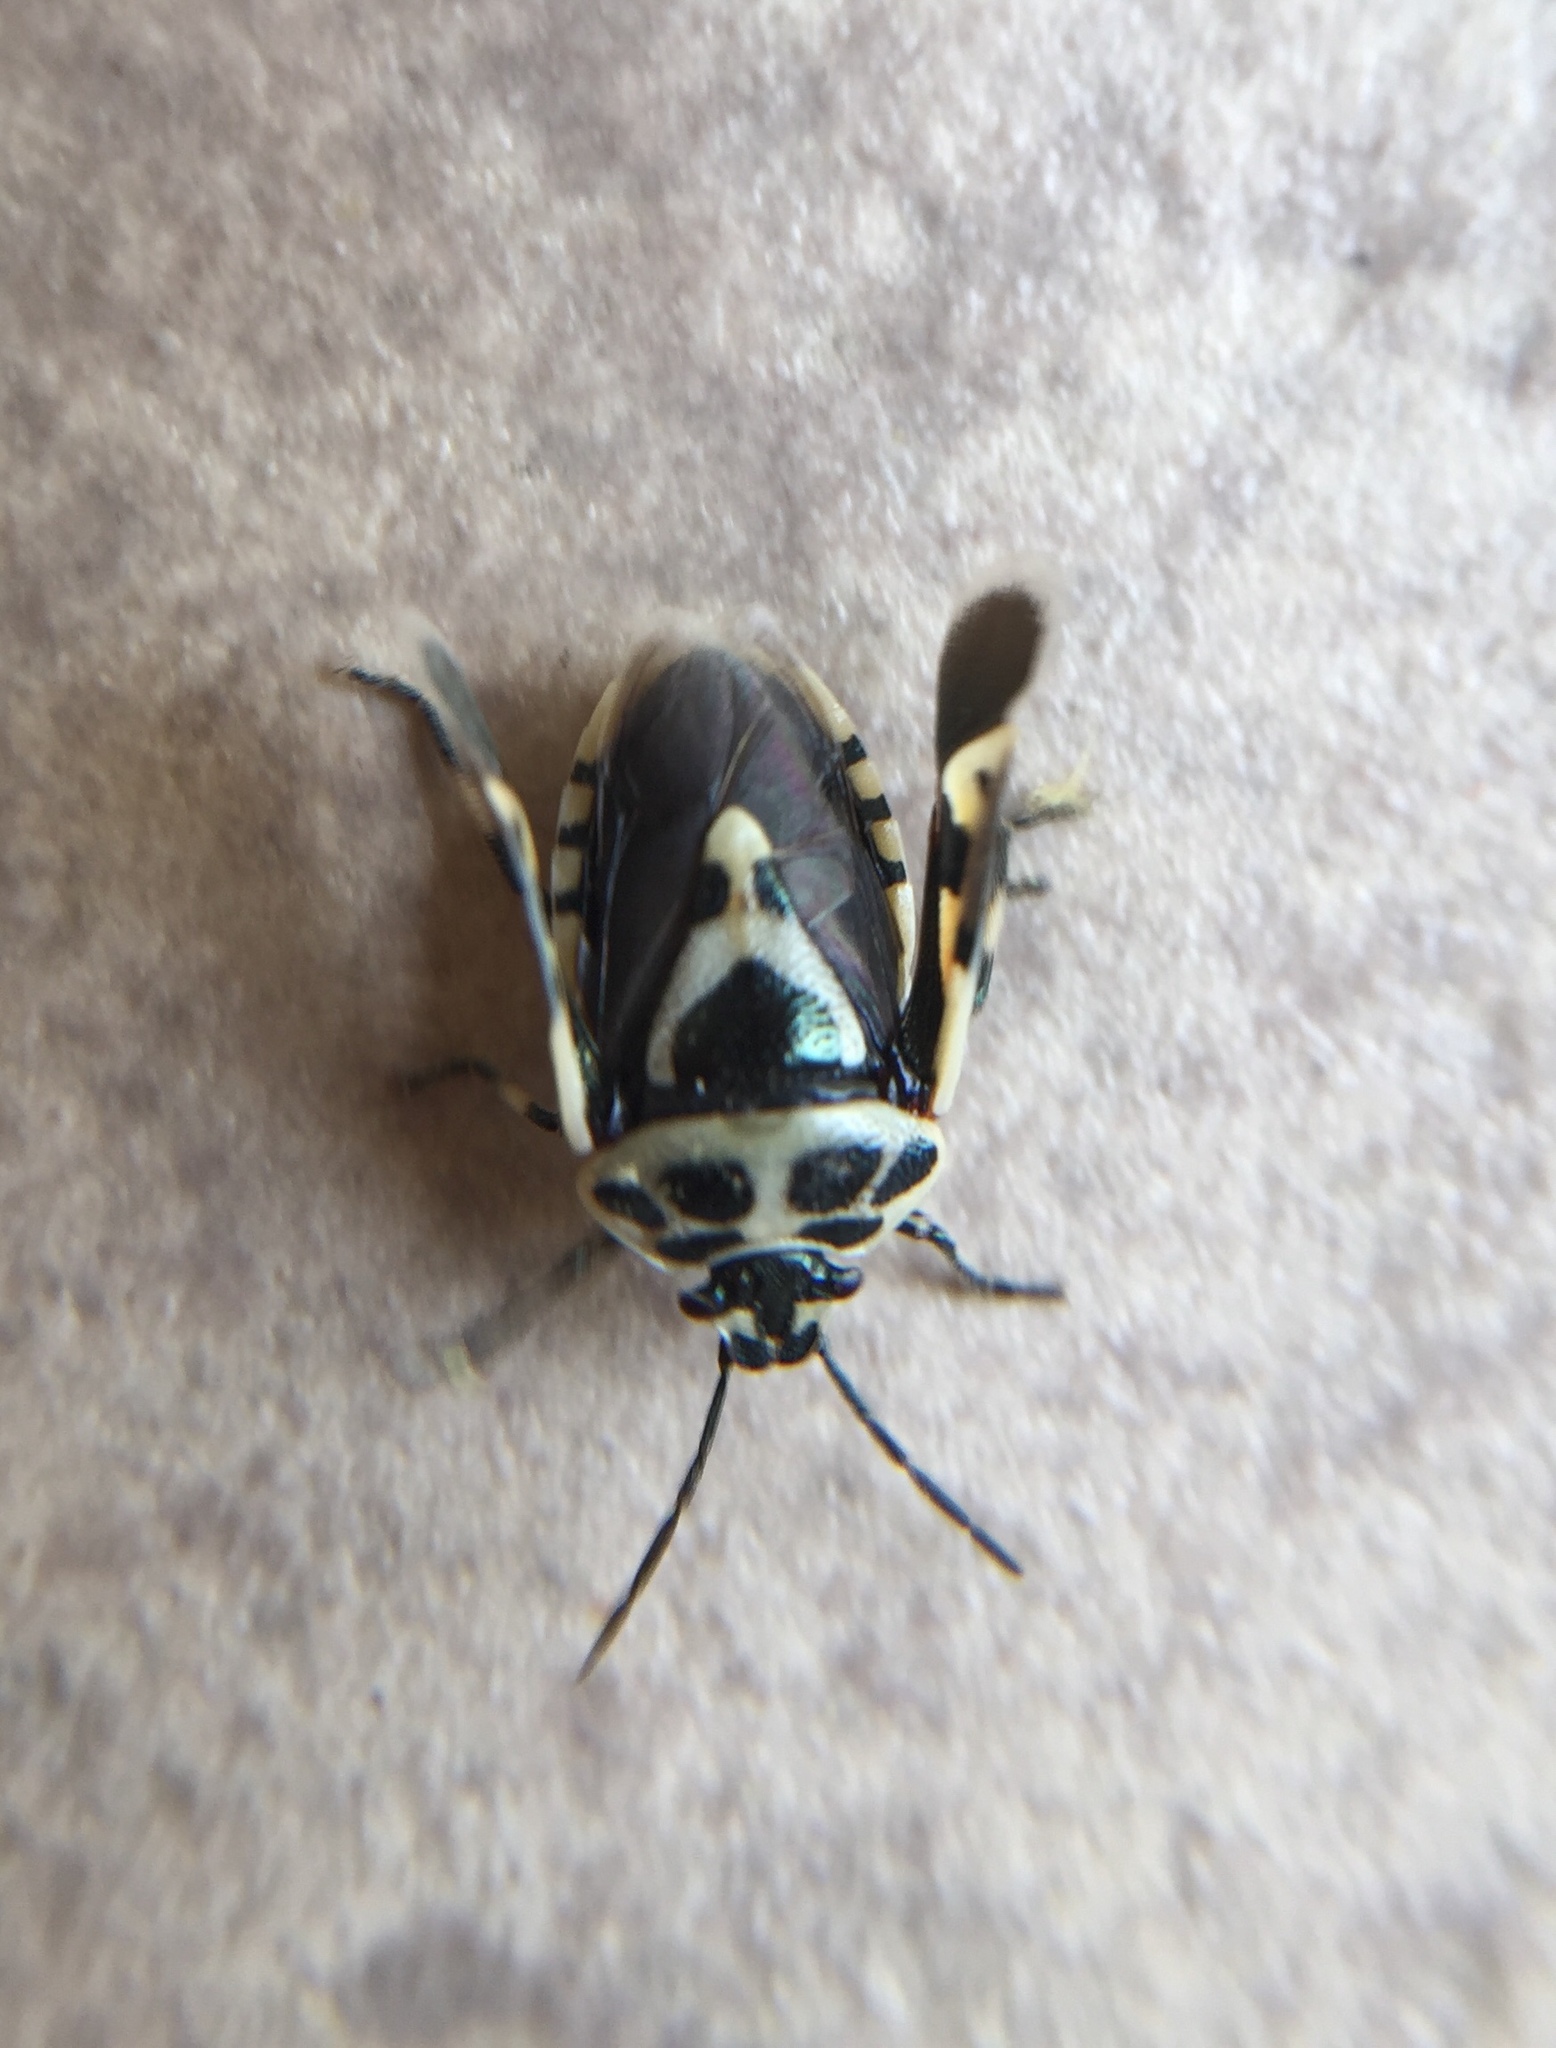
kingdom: Animalia
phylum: Arthropoda
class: Insecta
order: Hemiptera
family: Pentatomidae
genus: Eurydema
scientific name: Eurydema ornata
